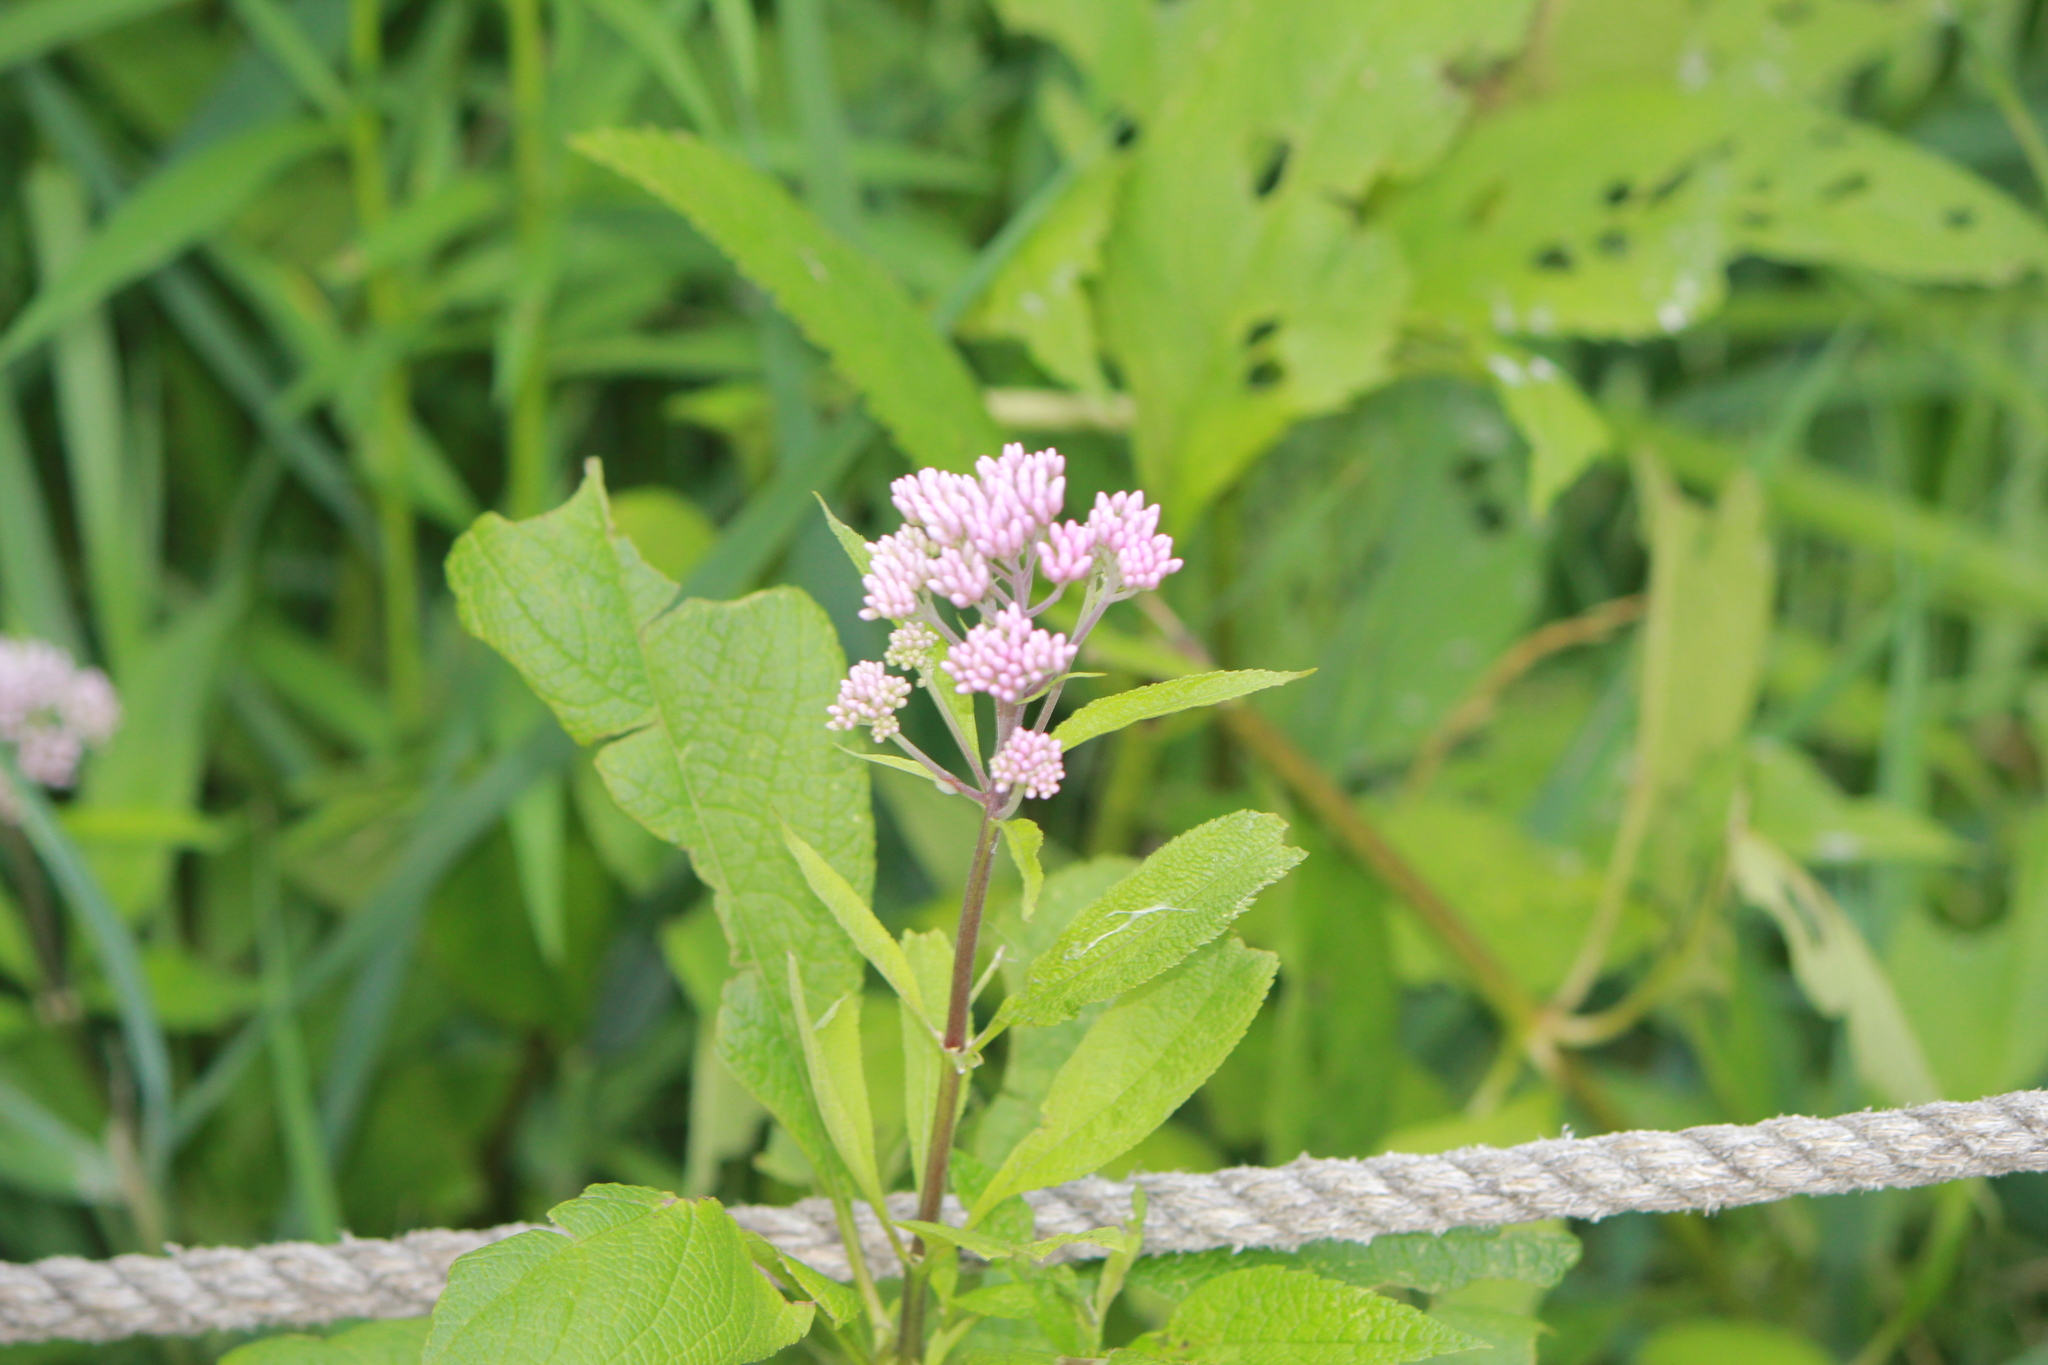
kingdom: Plantae
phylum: Tracheophyta
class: Magnoliopsida
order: Asterales
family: Asteraceae
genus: Eutrochium
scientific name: Eutrochium maculatum
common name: Spotted joe pye weed
